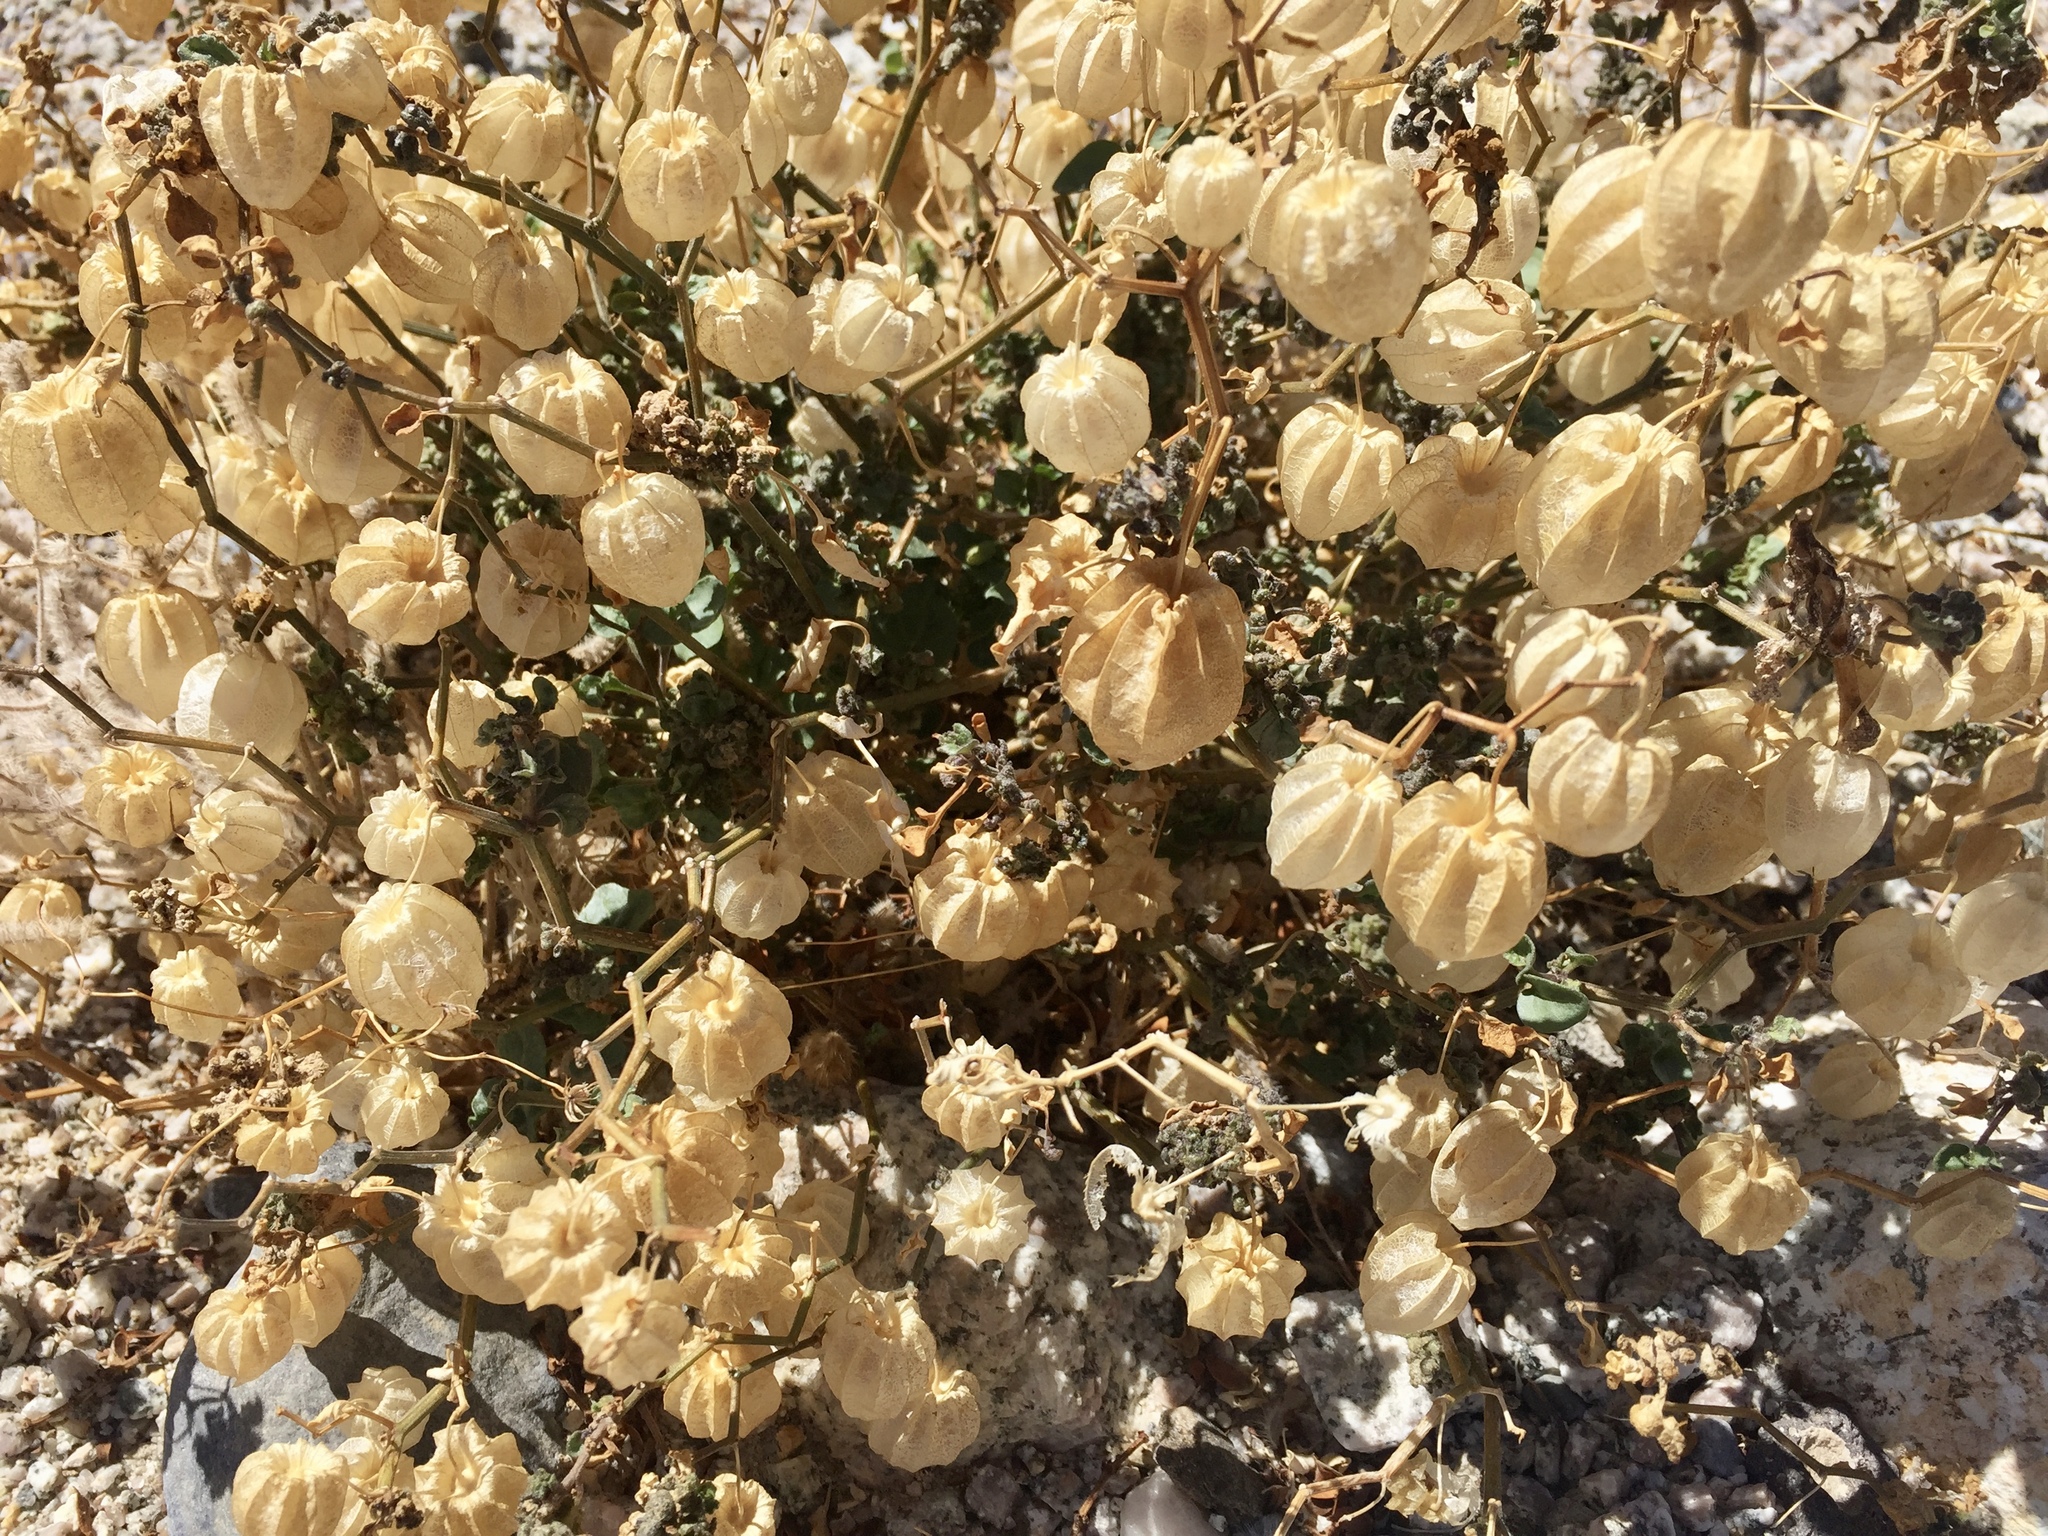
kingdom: Plantae
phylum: Tracheophyta
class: Magnoliopsida
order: Solanales
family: Solanaceae
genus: Physalis
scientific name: Physalis crassifolia
